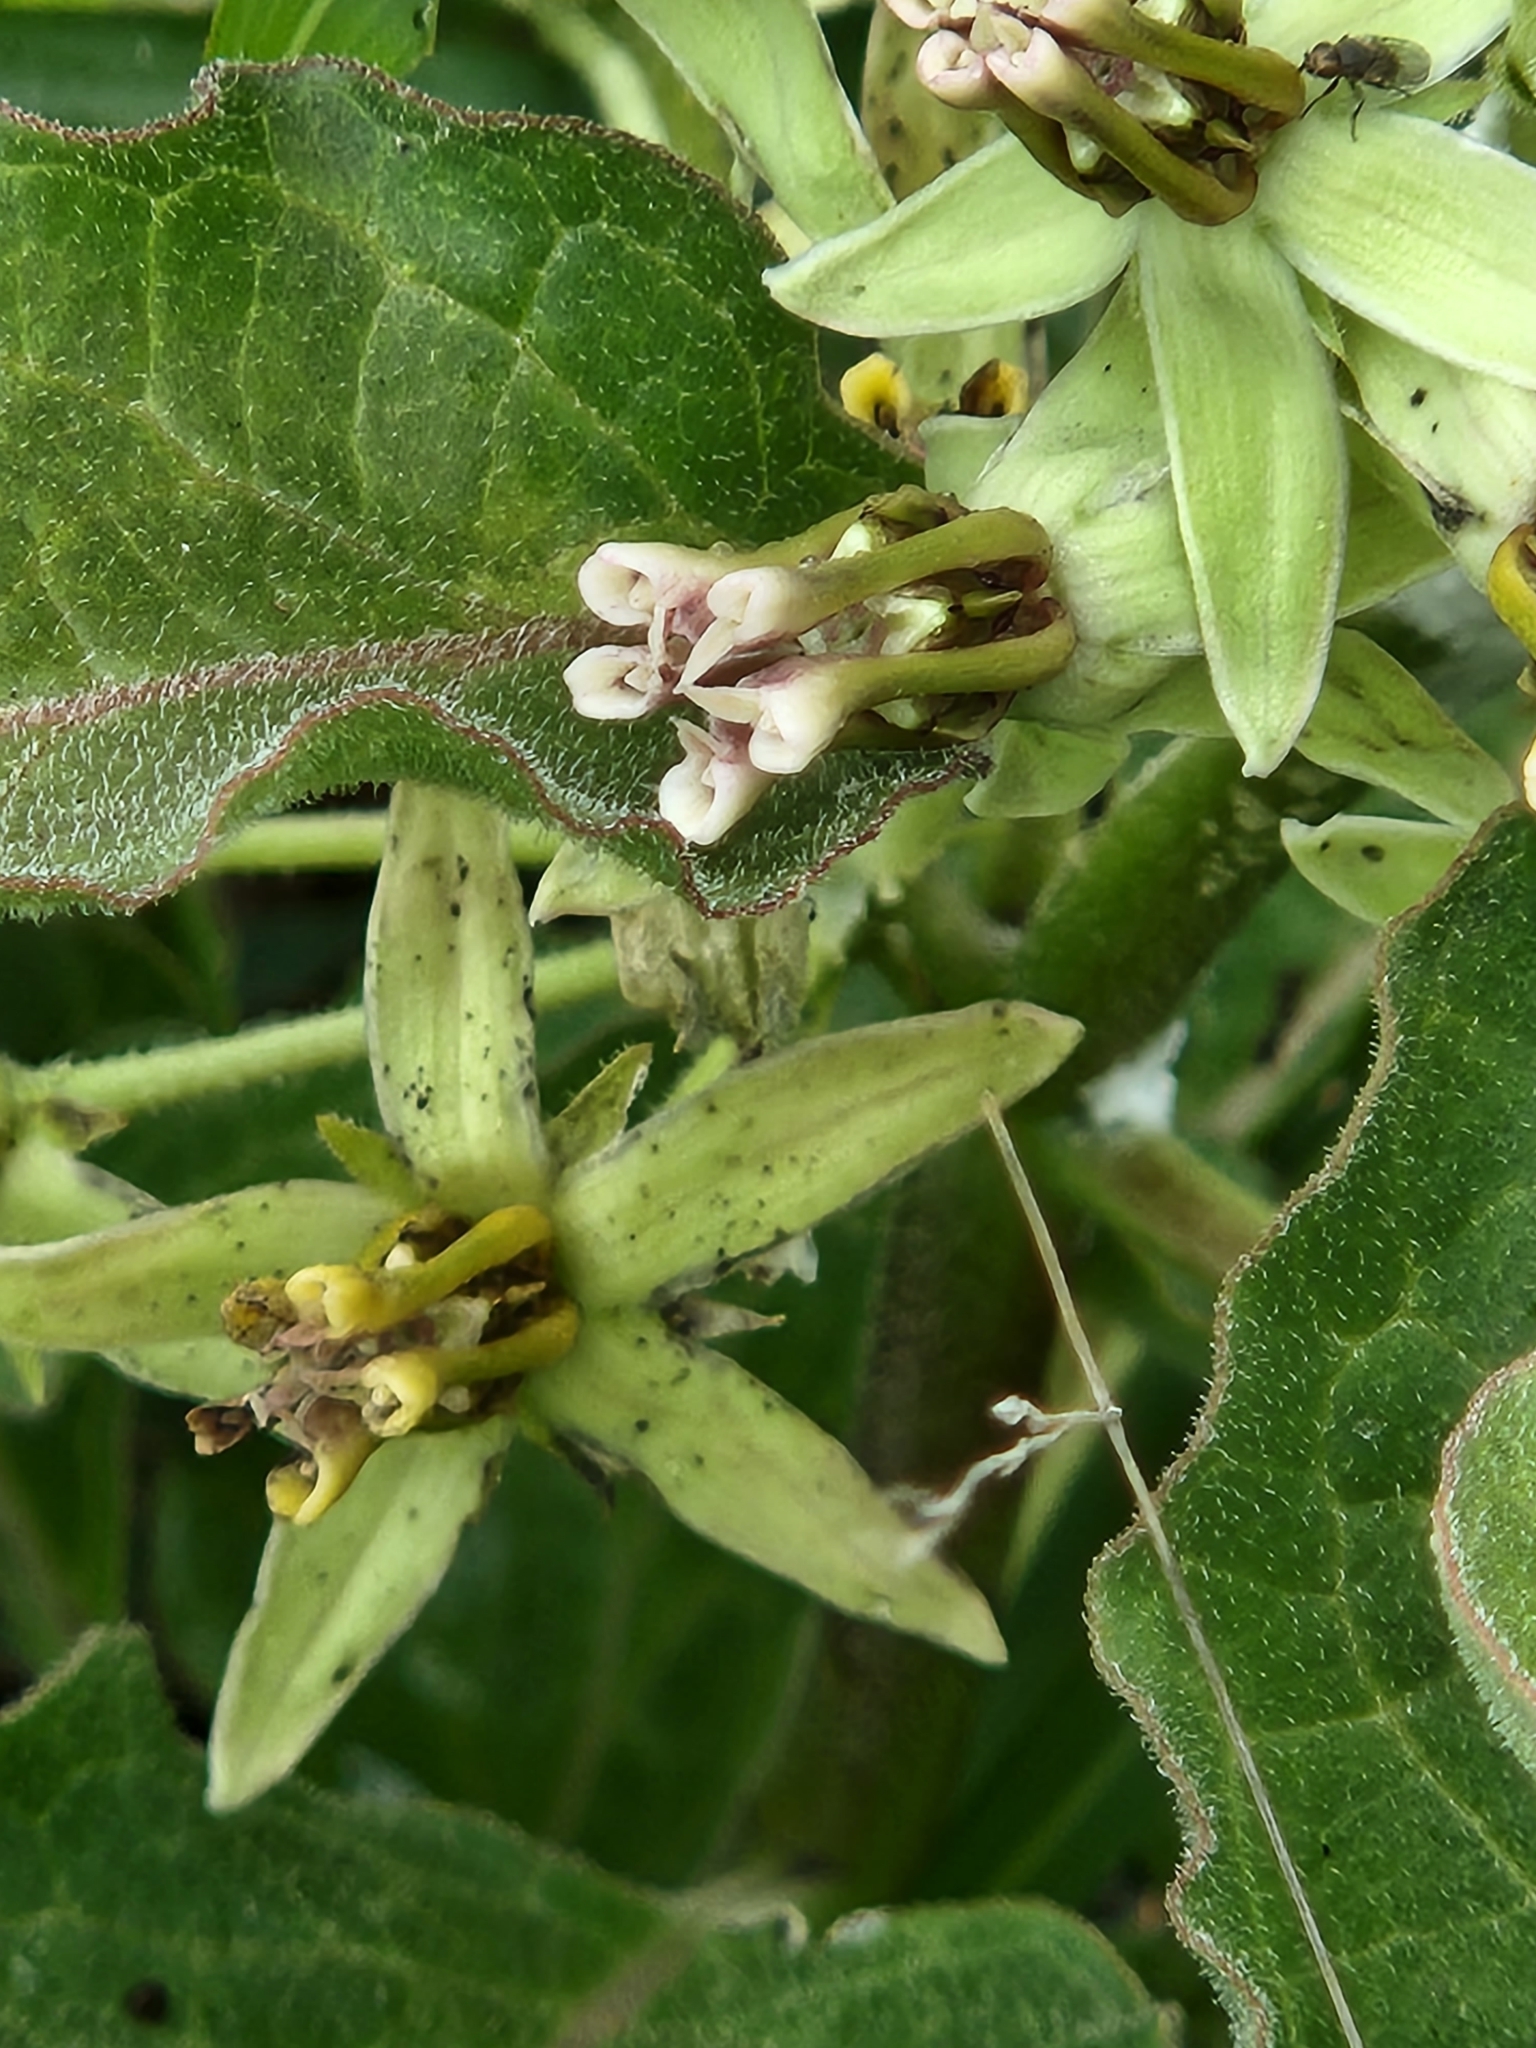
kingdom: Plantae
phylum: Tracheophyta
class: Magnoliopsida
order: Gentianales
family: Apocynaceae
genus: Asclepias
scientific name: Asclepias oenotheroides
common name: Zizotes milkweed
